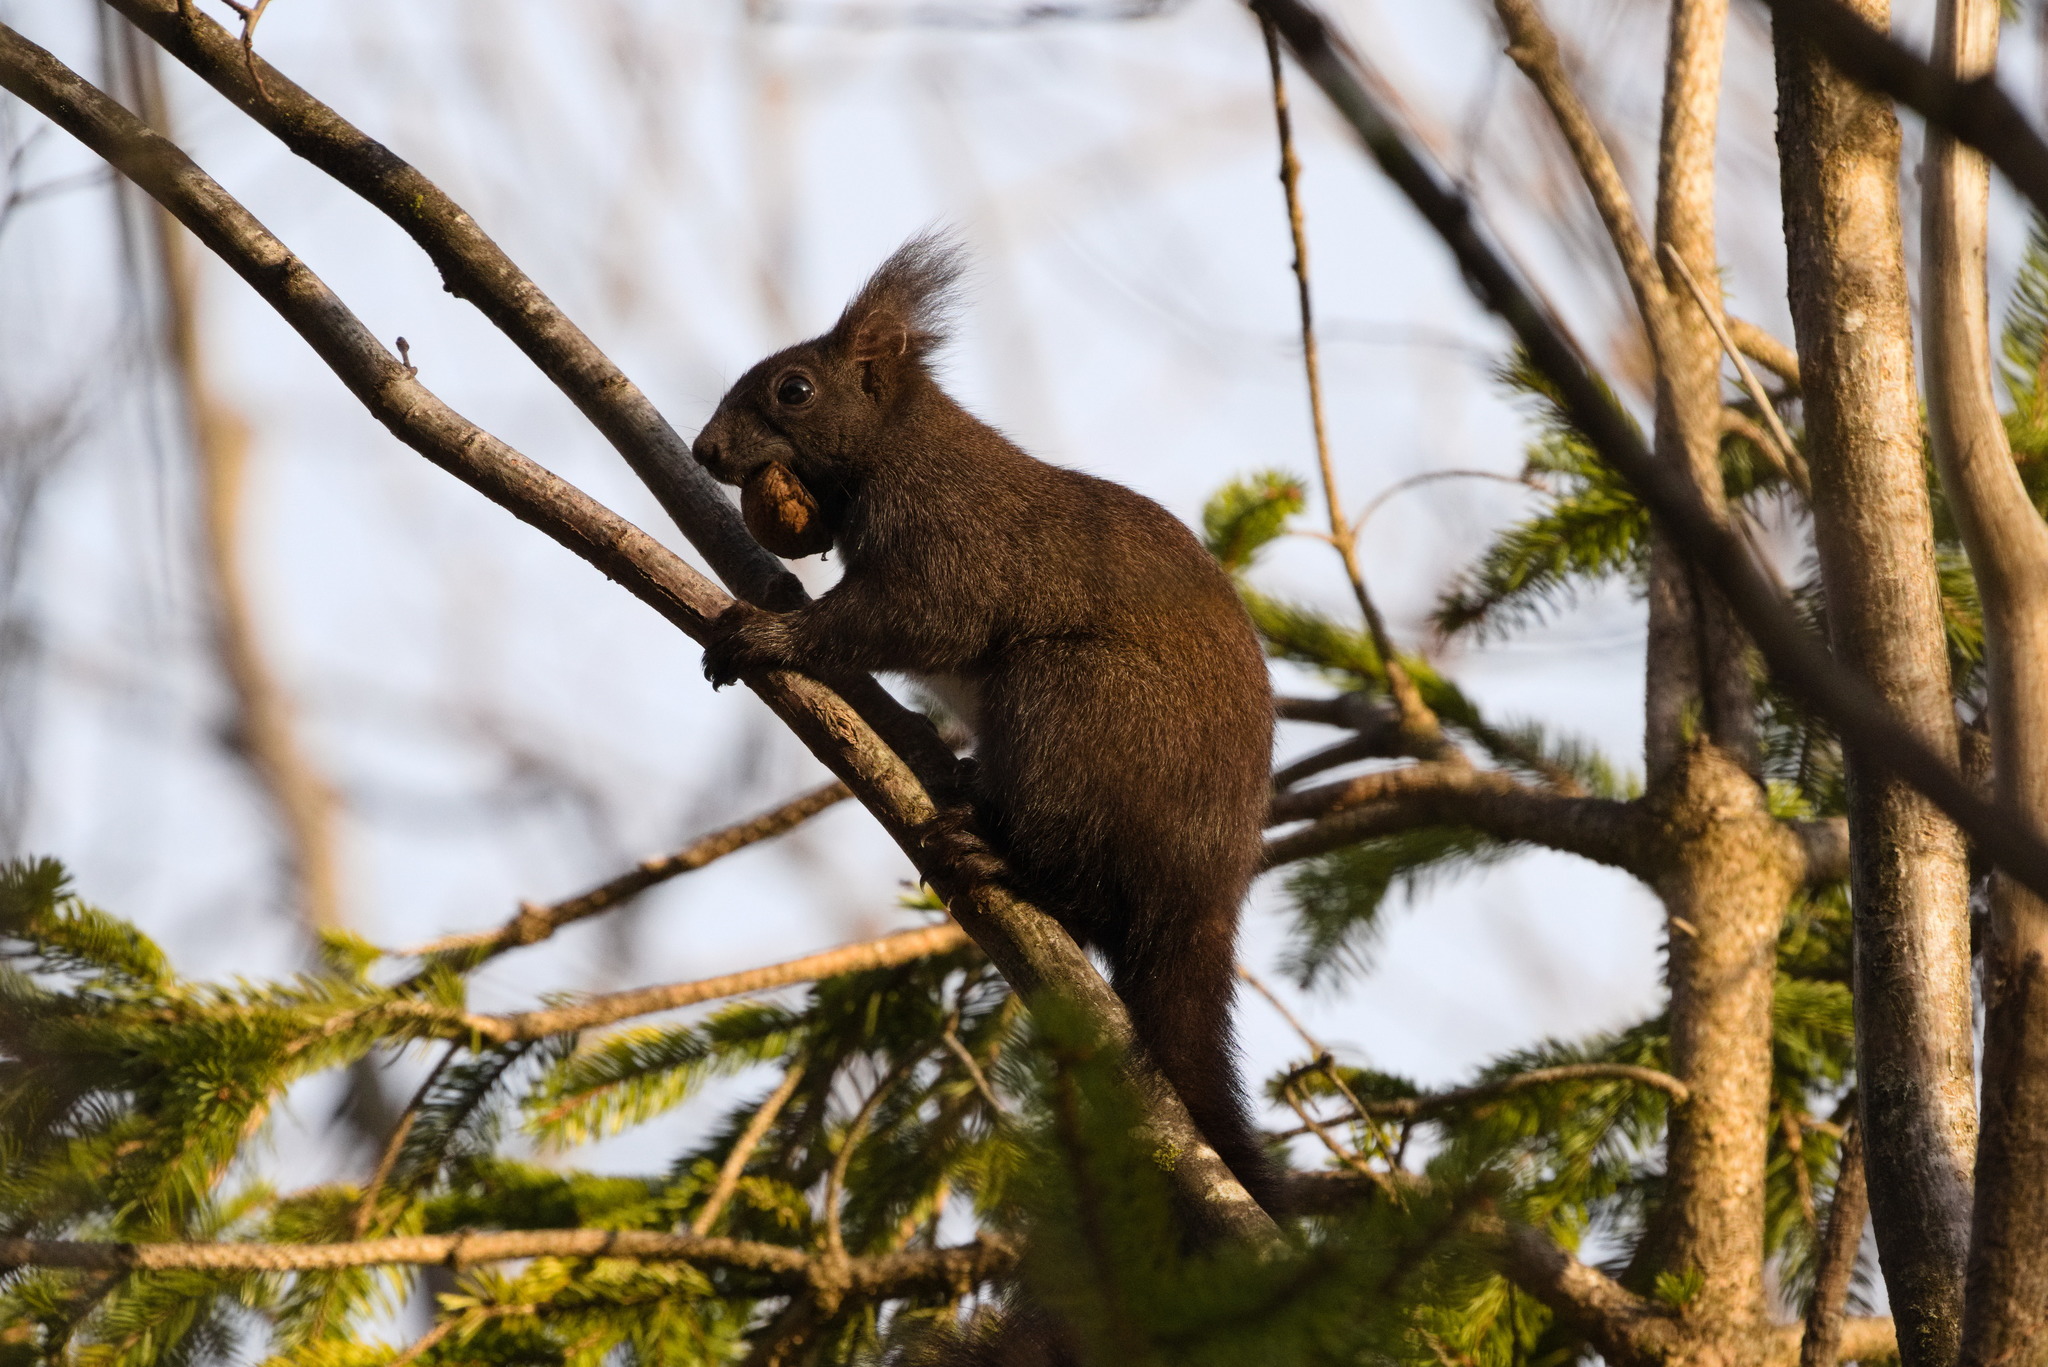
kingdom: Animalia
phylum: Chordata
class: Mammalia
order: Rodentia
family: Sciuridae
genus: Sciurus
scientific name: Sciurus vulgaris
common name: Eurasian red squirrel
